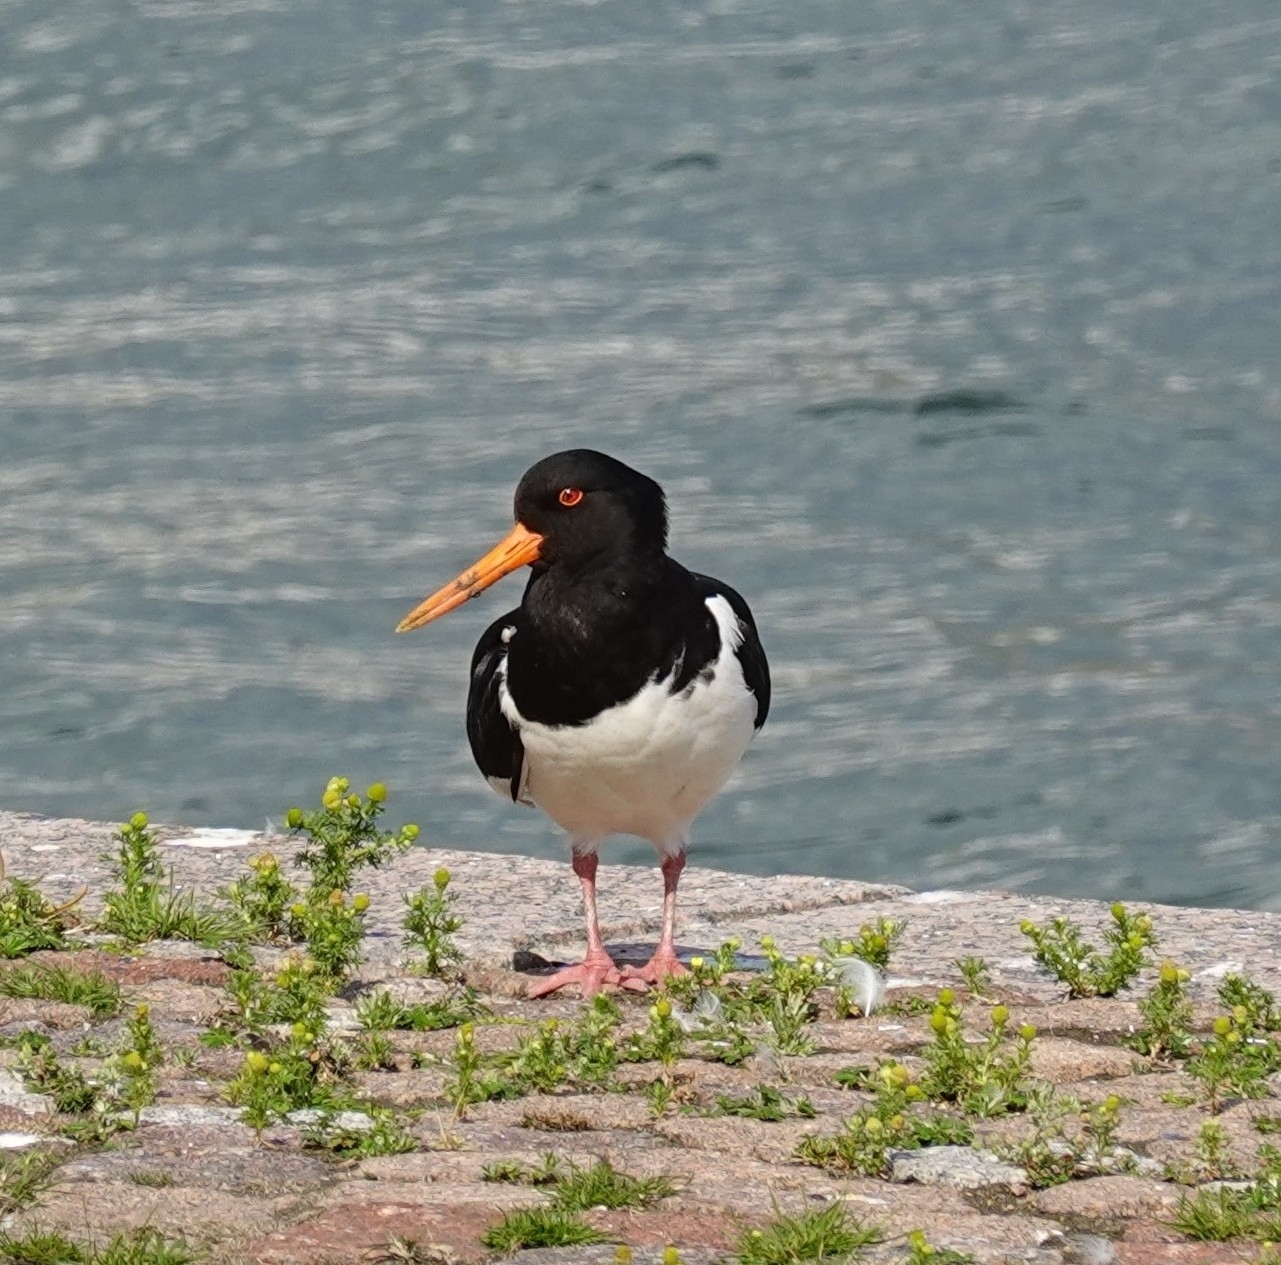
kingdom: Animalia
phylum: Chordata
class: Aves
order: Charadriiformes
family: Haematopodidae
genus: Haematopus
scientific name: Haematopus ostralegus
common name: Eurasian oystercatcher
